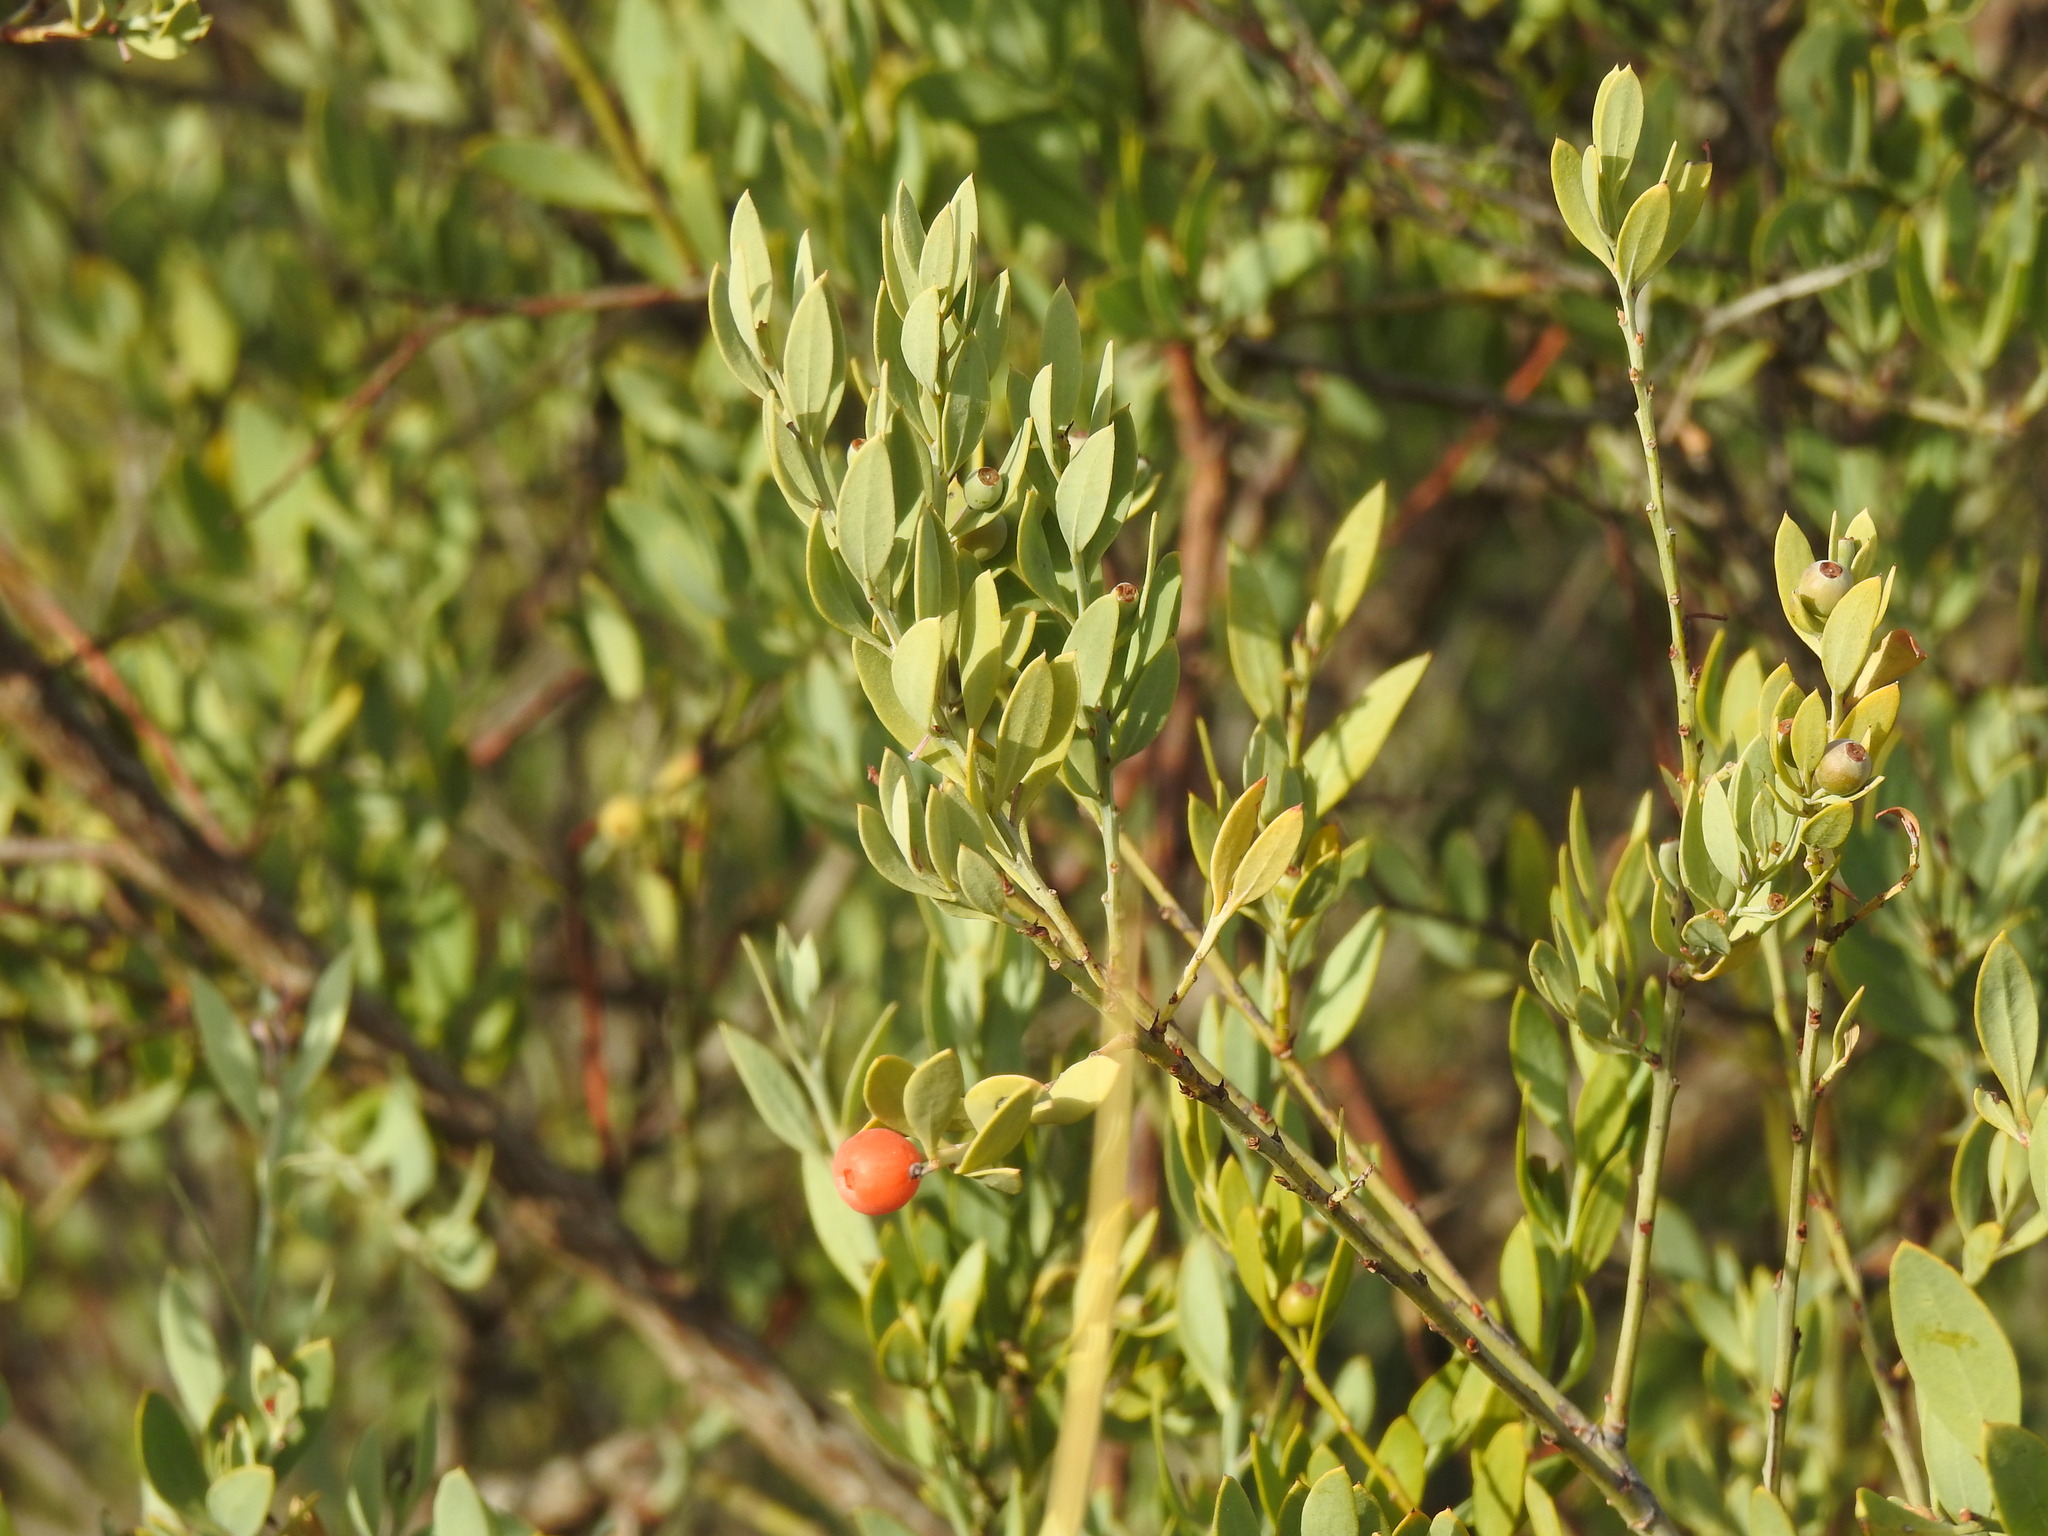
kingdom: Plantae
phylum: Tracheophyta
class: Magnoliopsida
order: Santalales
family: Santalaceae
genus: Osyris
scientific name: Osyris lanceolata
